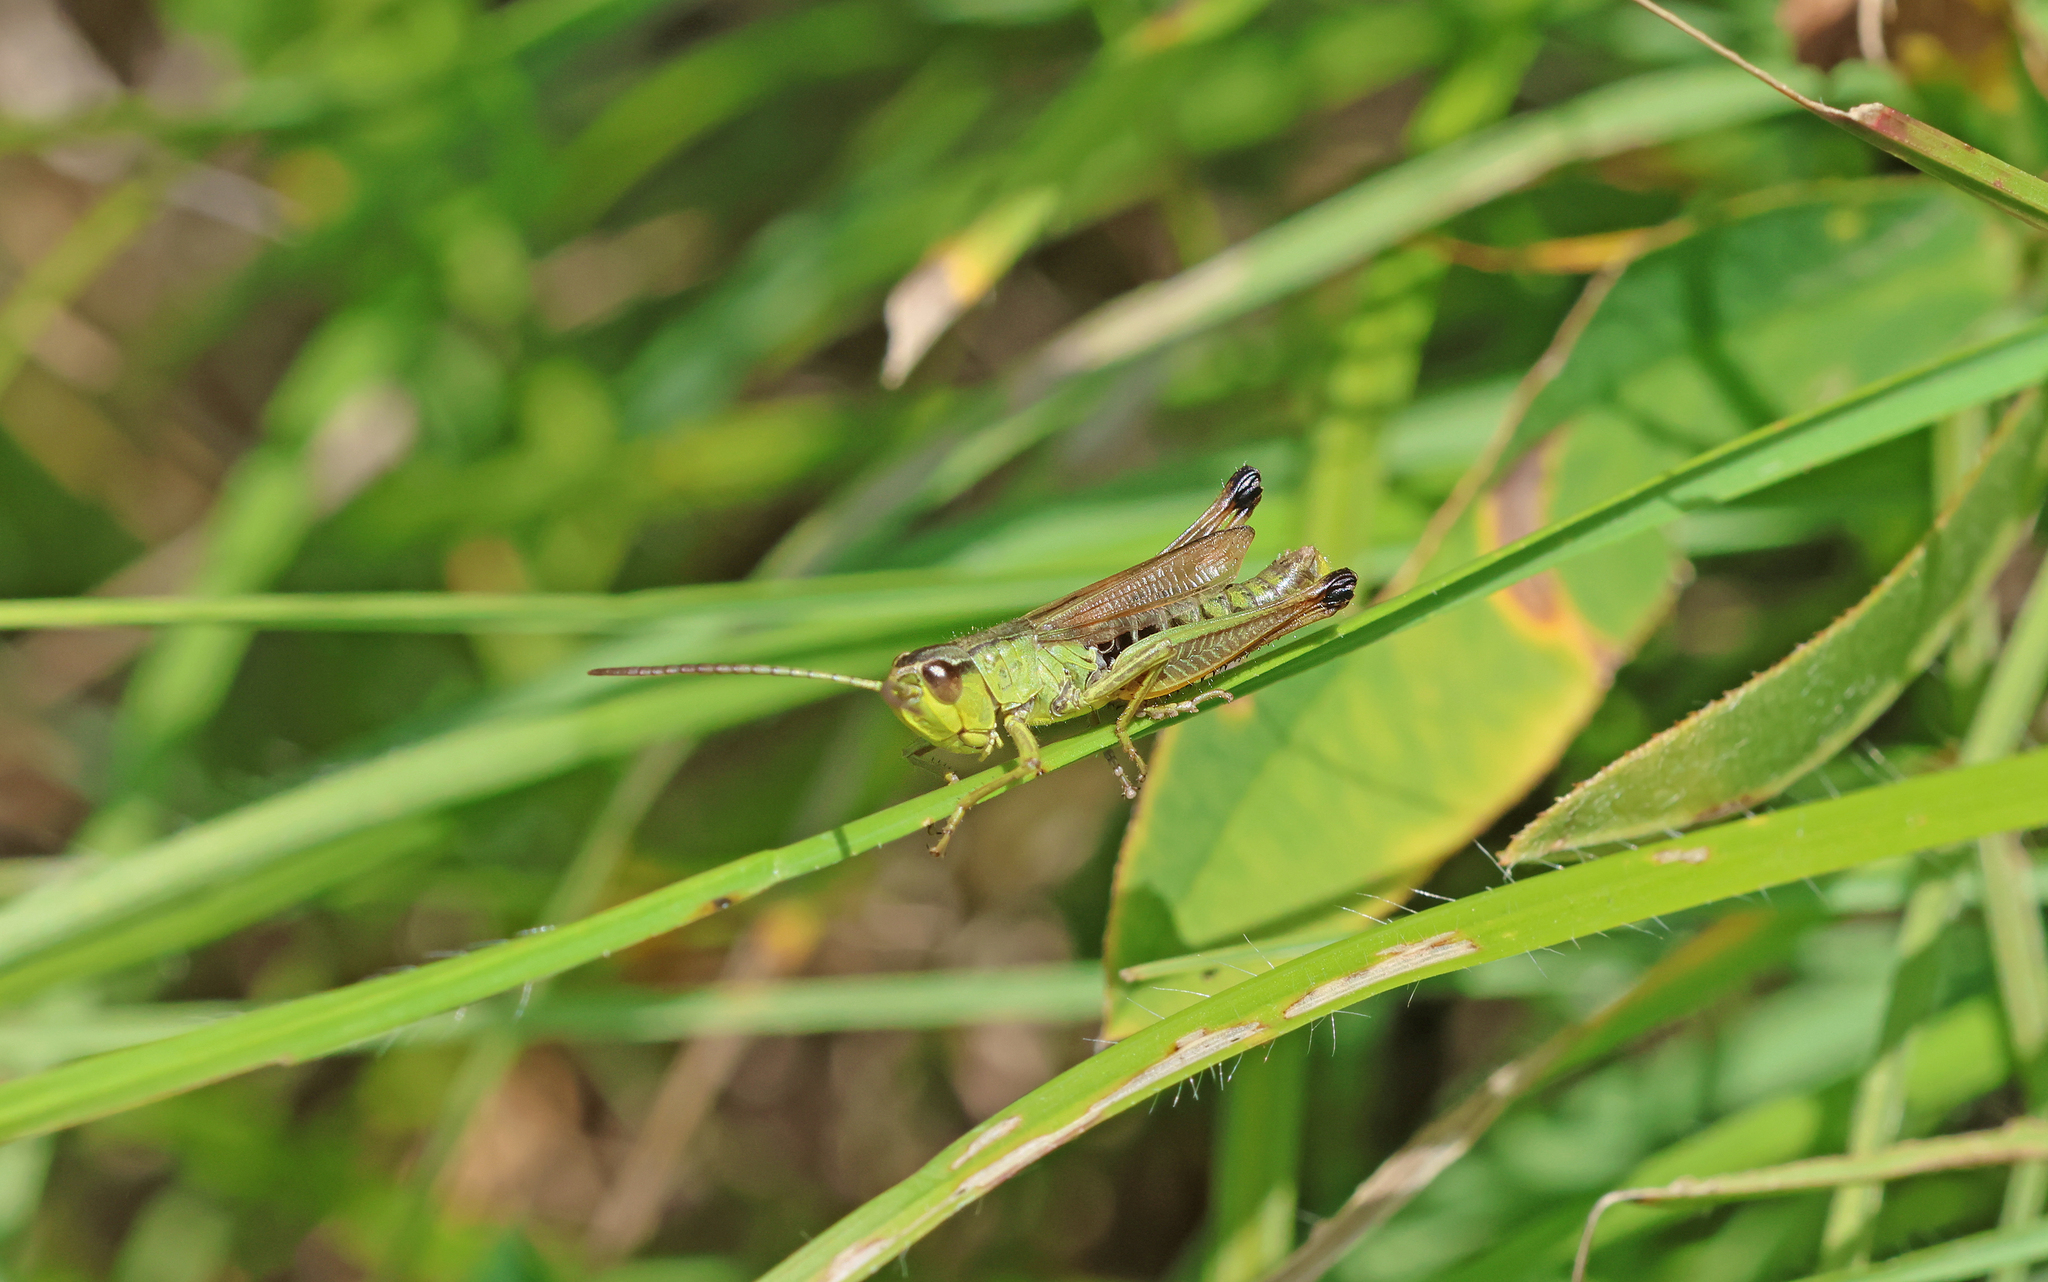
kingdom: Animalia
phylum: Arthropoda
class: Insecta
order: Orthoptera
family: Acrididae
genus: Pseudochorthippus
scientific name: Pseudochorthippus parallelus
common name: Meadow grasshopper
